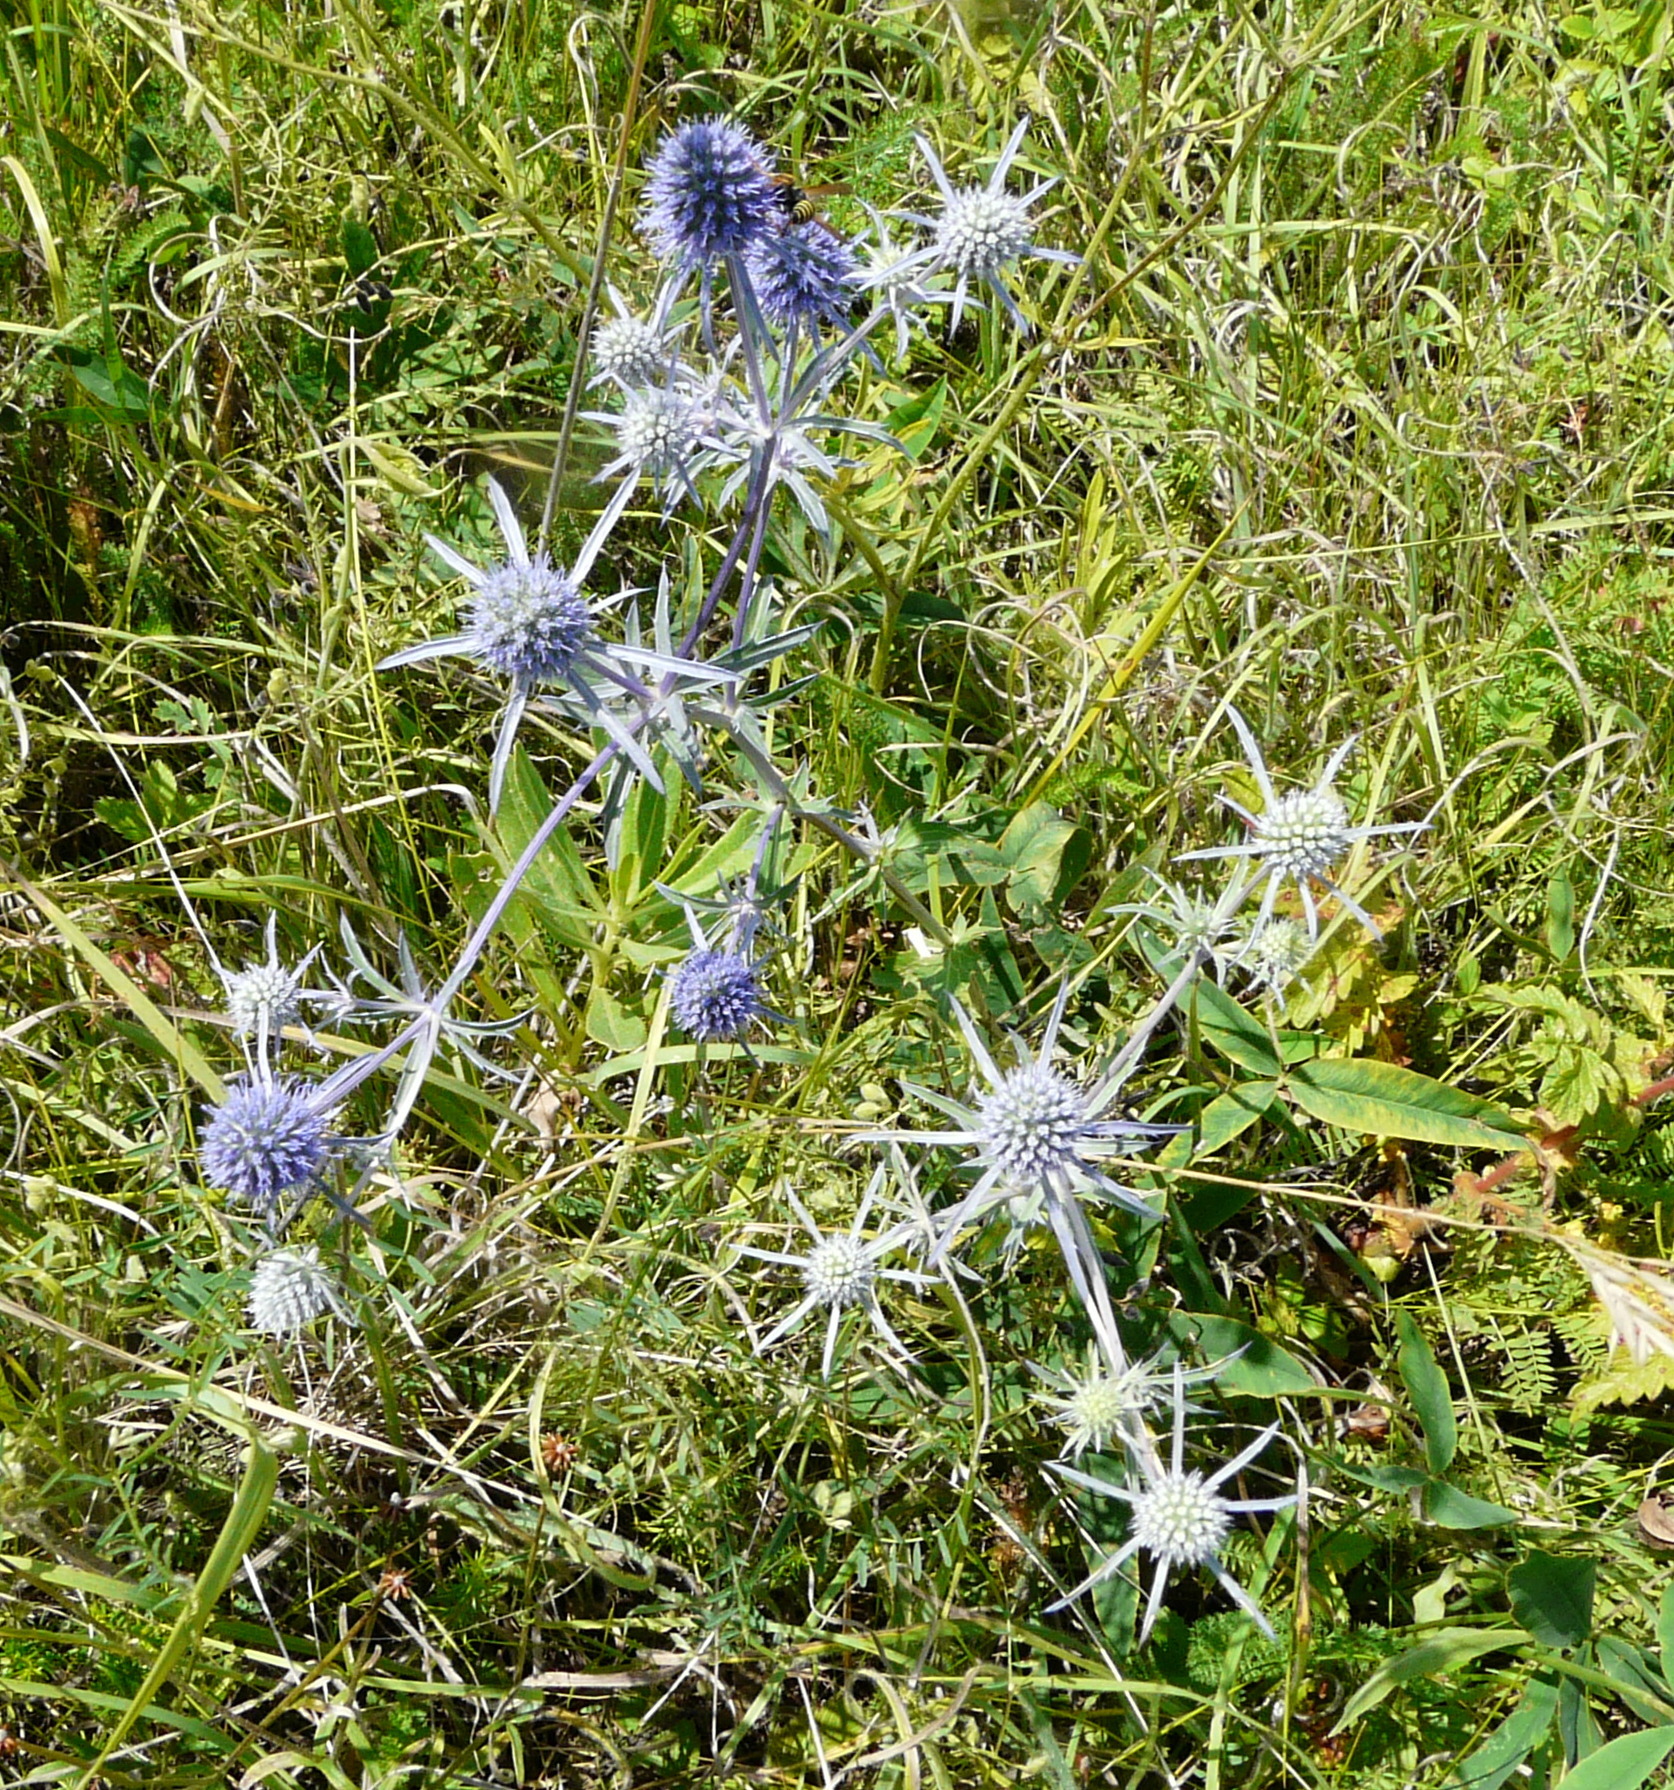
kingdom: Plantae
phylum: Tracheophyta
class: Magnoliopsida
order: Apiales
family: Apiaceae
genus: Eryngium
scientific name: Eryngium planum
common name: Blue eryngo
